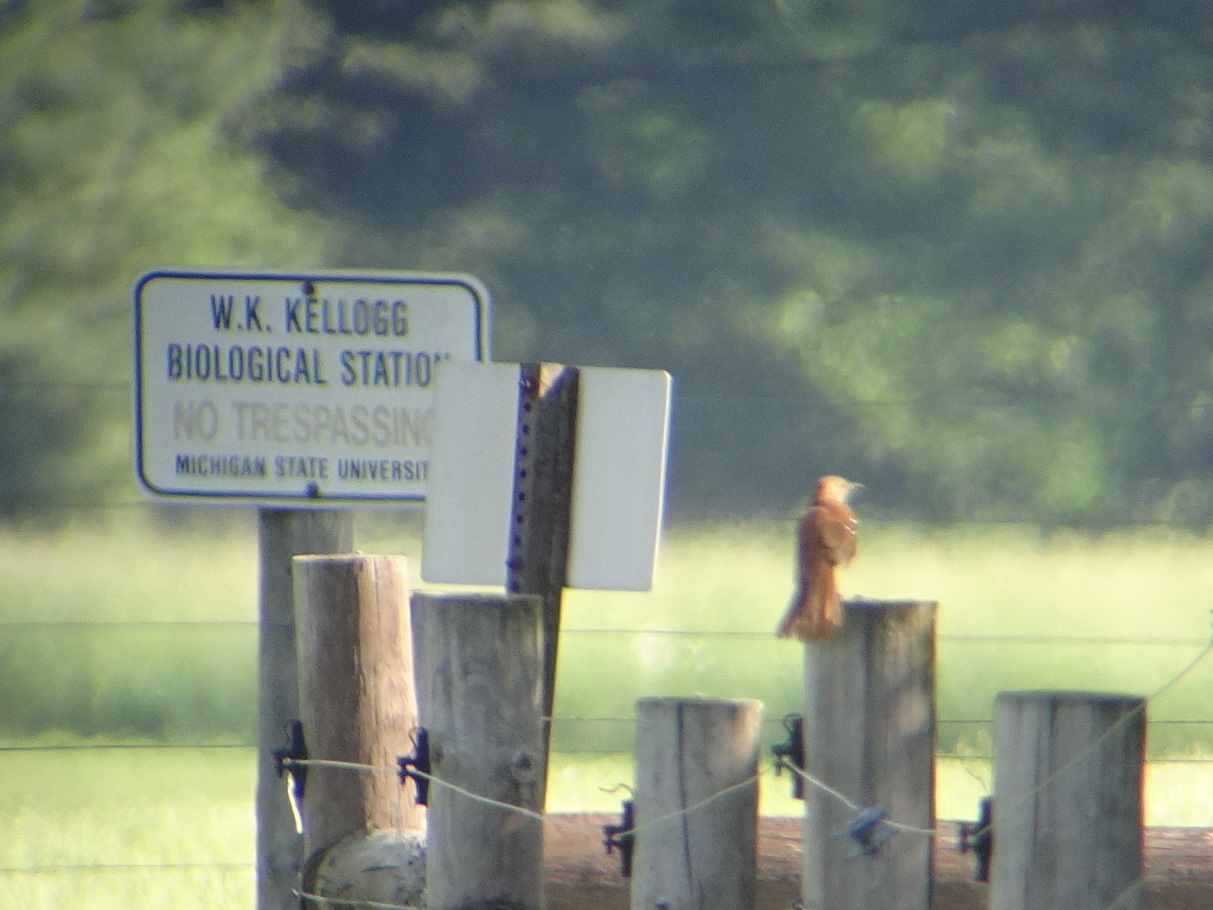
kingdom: Animalia
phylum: Chordata
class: Aves
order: Passeriformes
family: Mimidae
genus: Toxostoma
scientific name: Toxostoma rufum
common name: Brown thrasher
